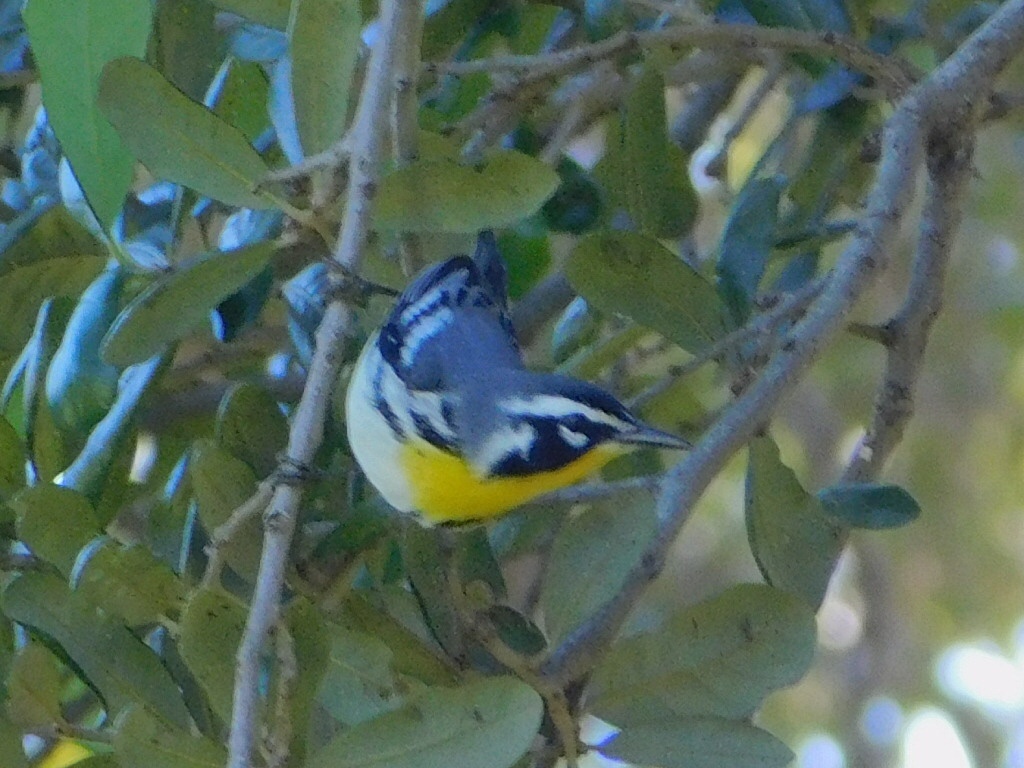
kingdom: Animalia
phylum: Chordata
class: Aves
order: Passeriformes
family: Parulidae
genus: Setophaga
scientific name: Setophaga dominica
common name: Yellow-throated warbler
